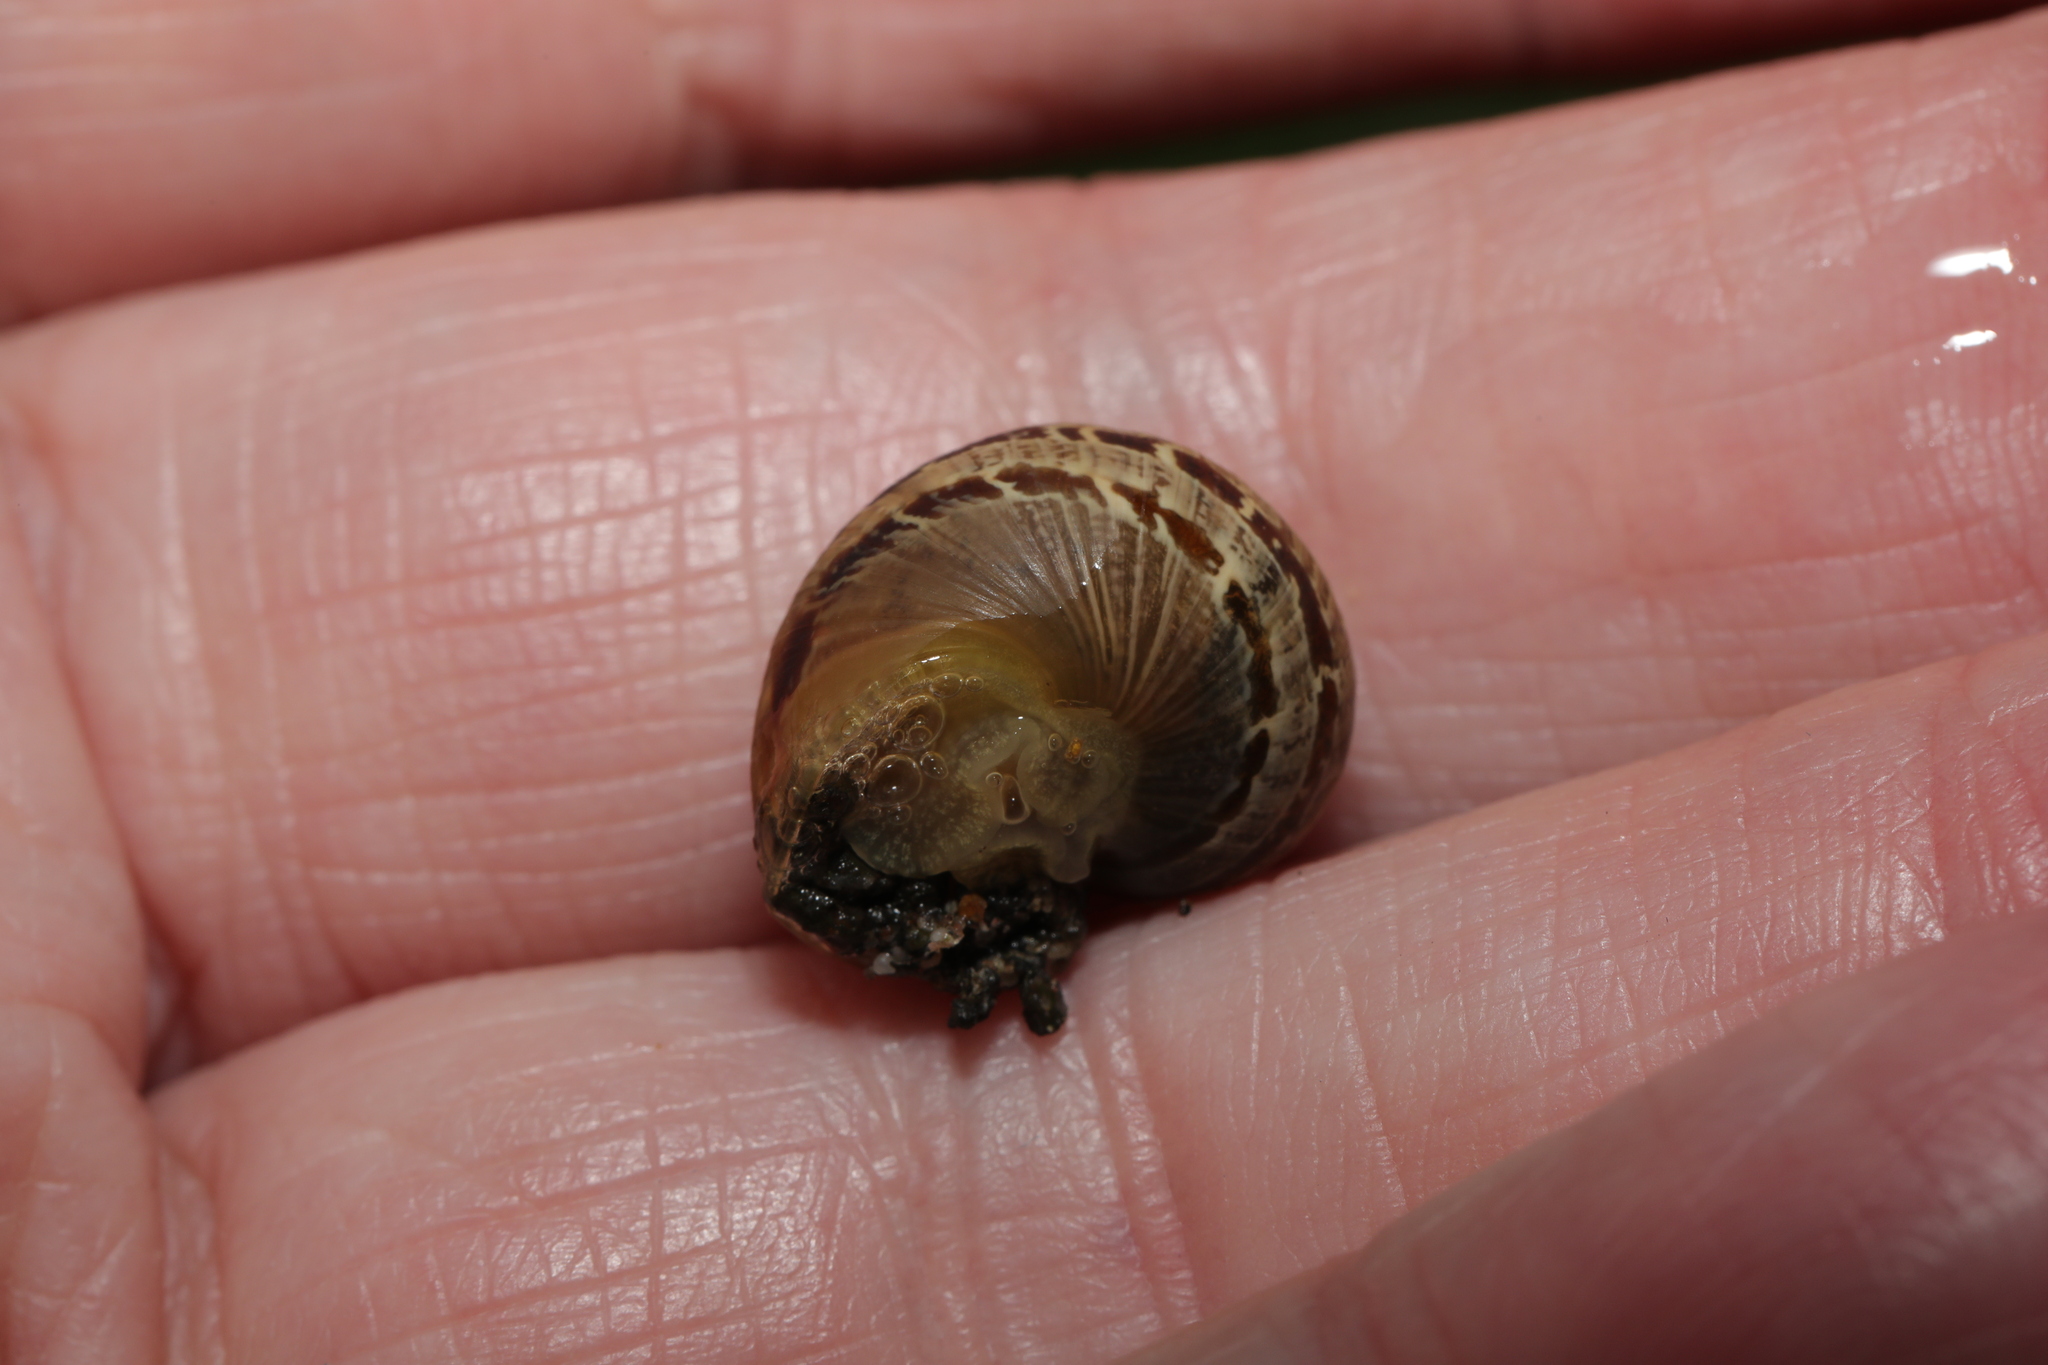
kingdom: Animalia
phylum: Mollusca
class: Gastropoda
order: Stylommatophora
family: Helicidae
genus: Cornu
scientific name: Cornu aspersum
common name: Brown garden snail
